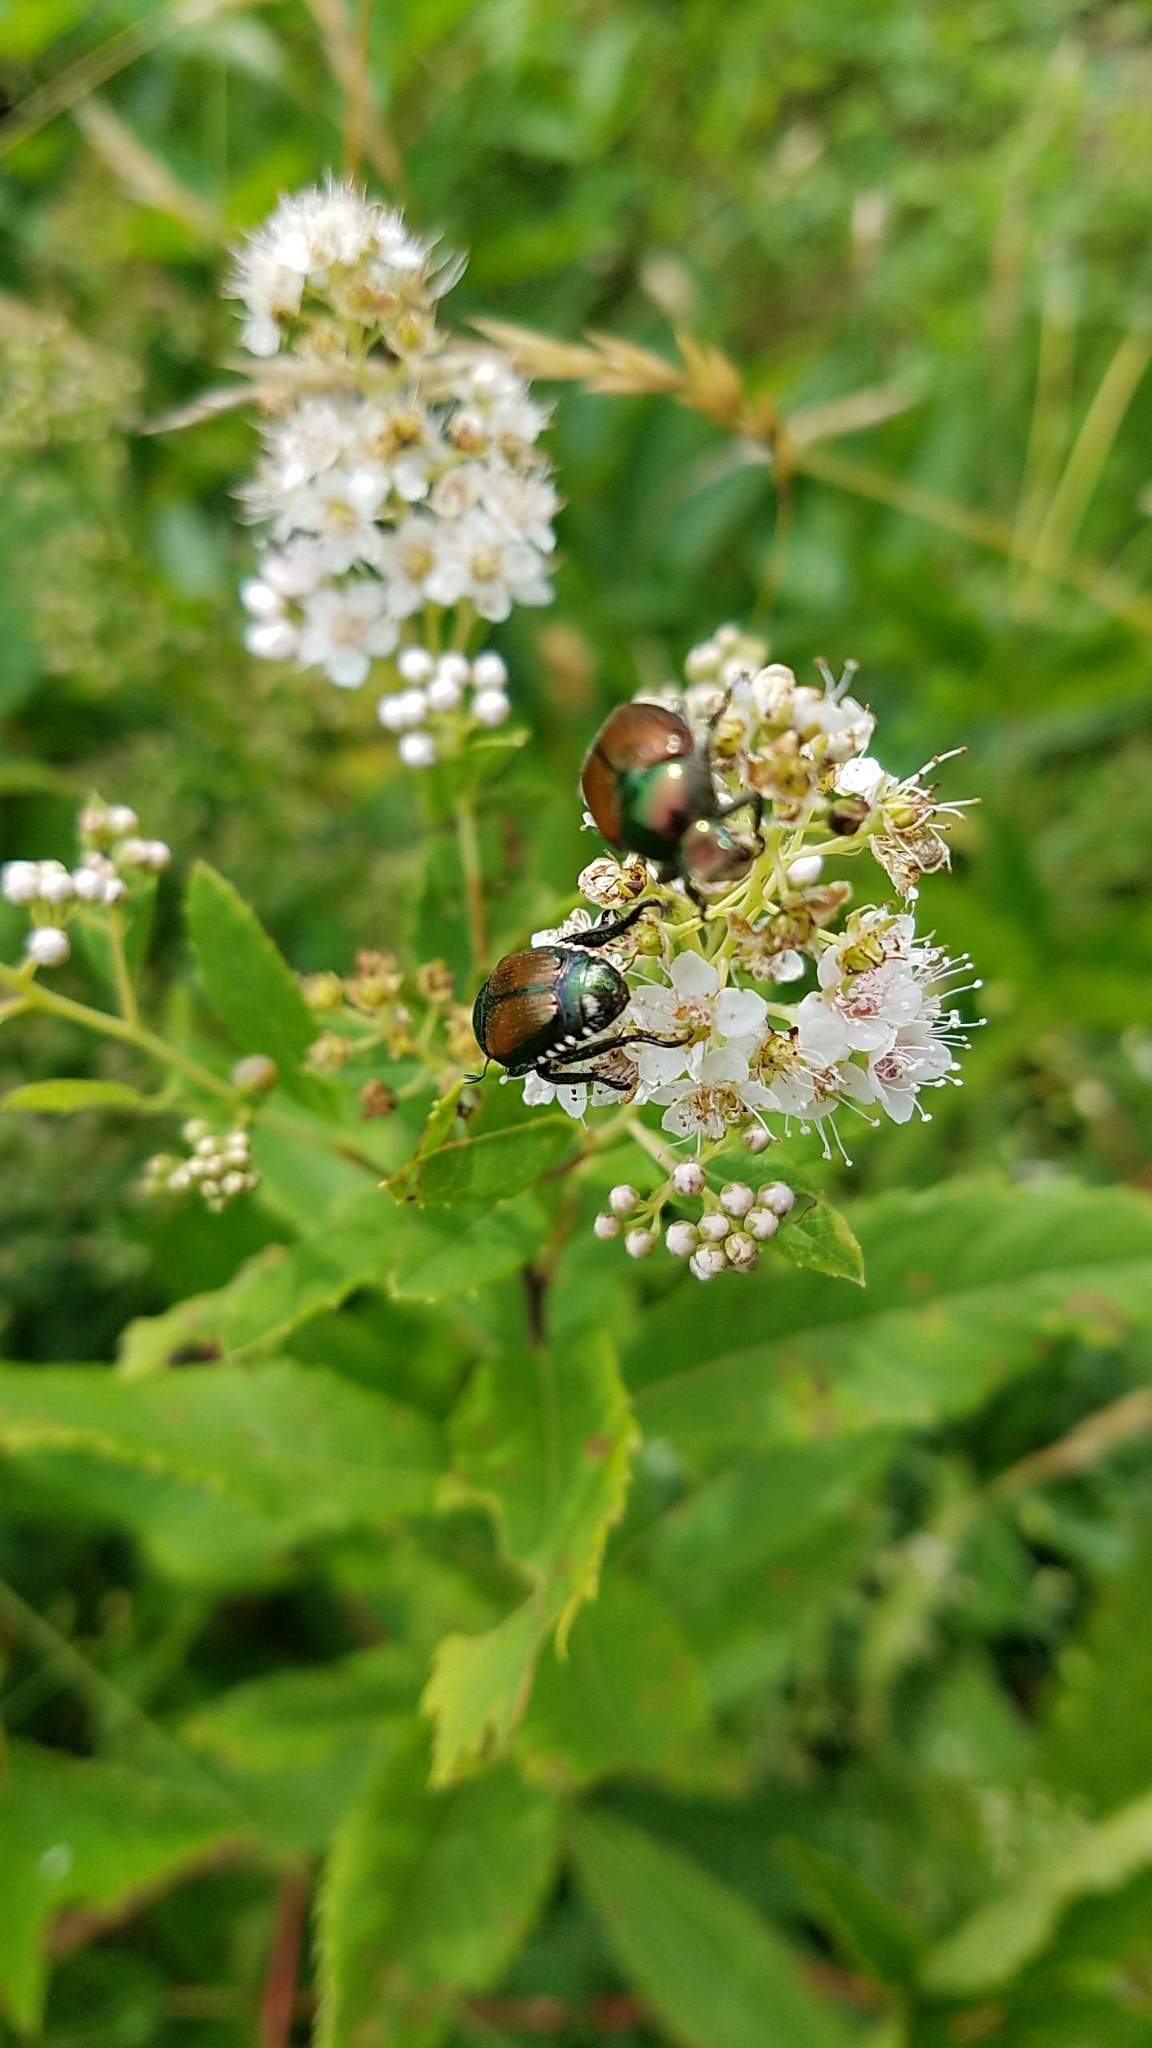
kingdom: Animalia
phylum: Arthropoda
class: Insecta
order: Coleoptera
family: Scarabaeidae
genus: Popillia
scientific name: Popillia japonica
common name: Japanese beetle
